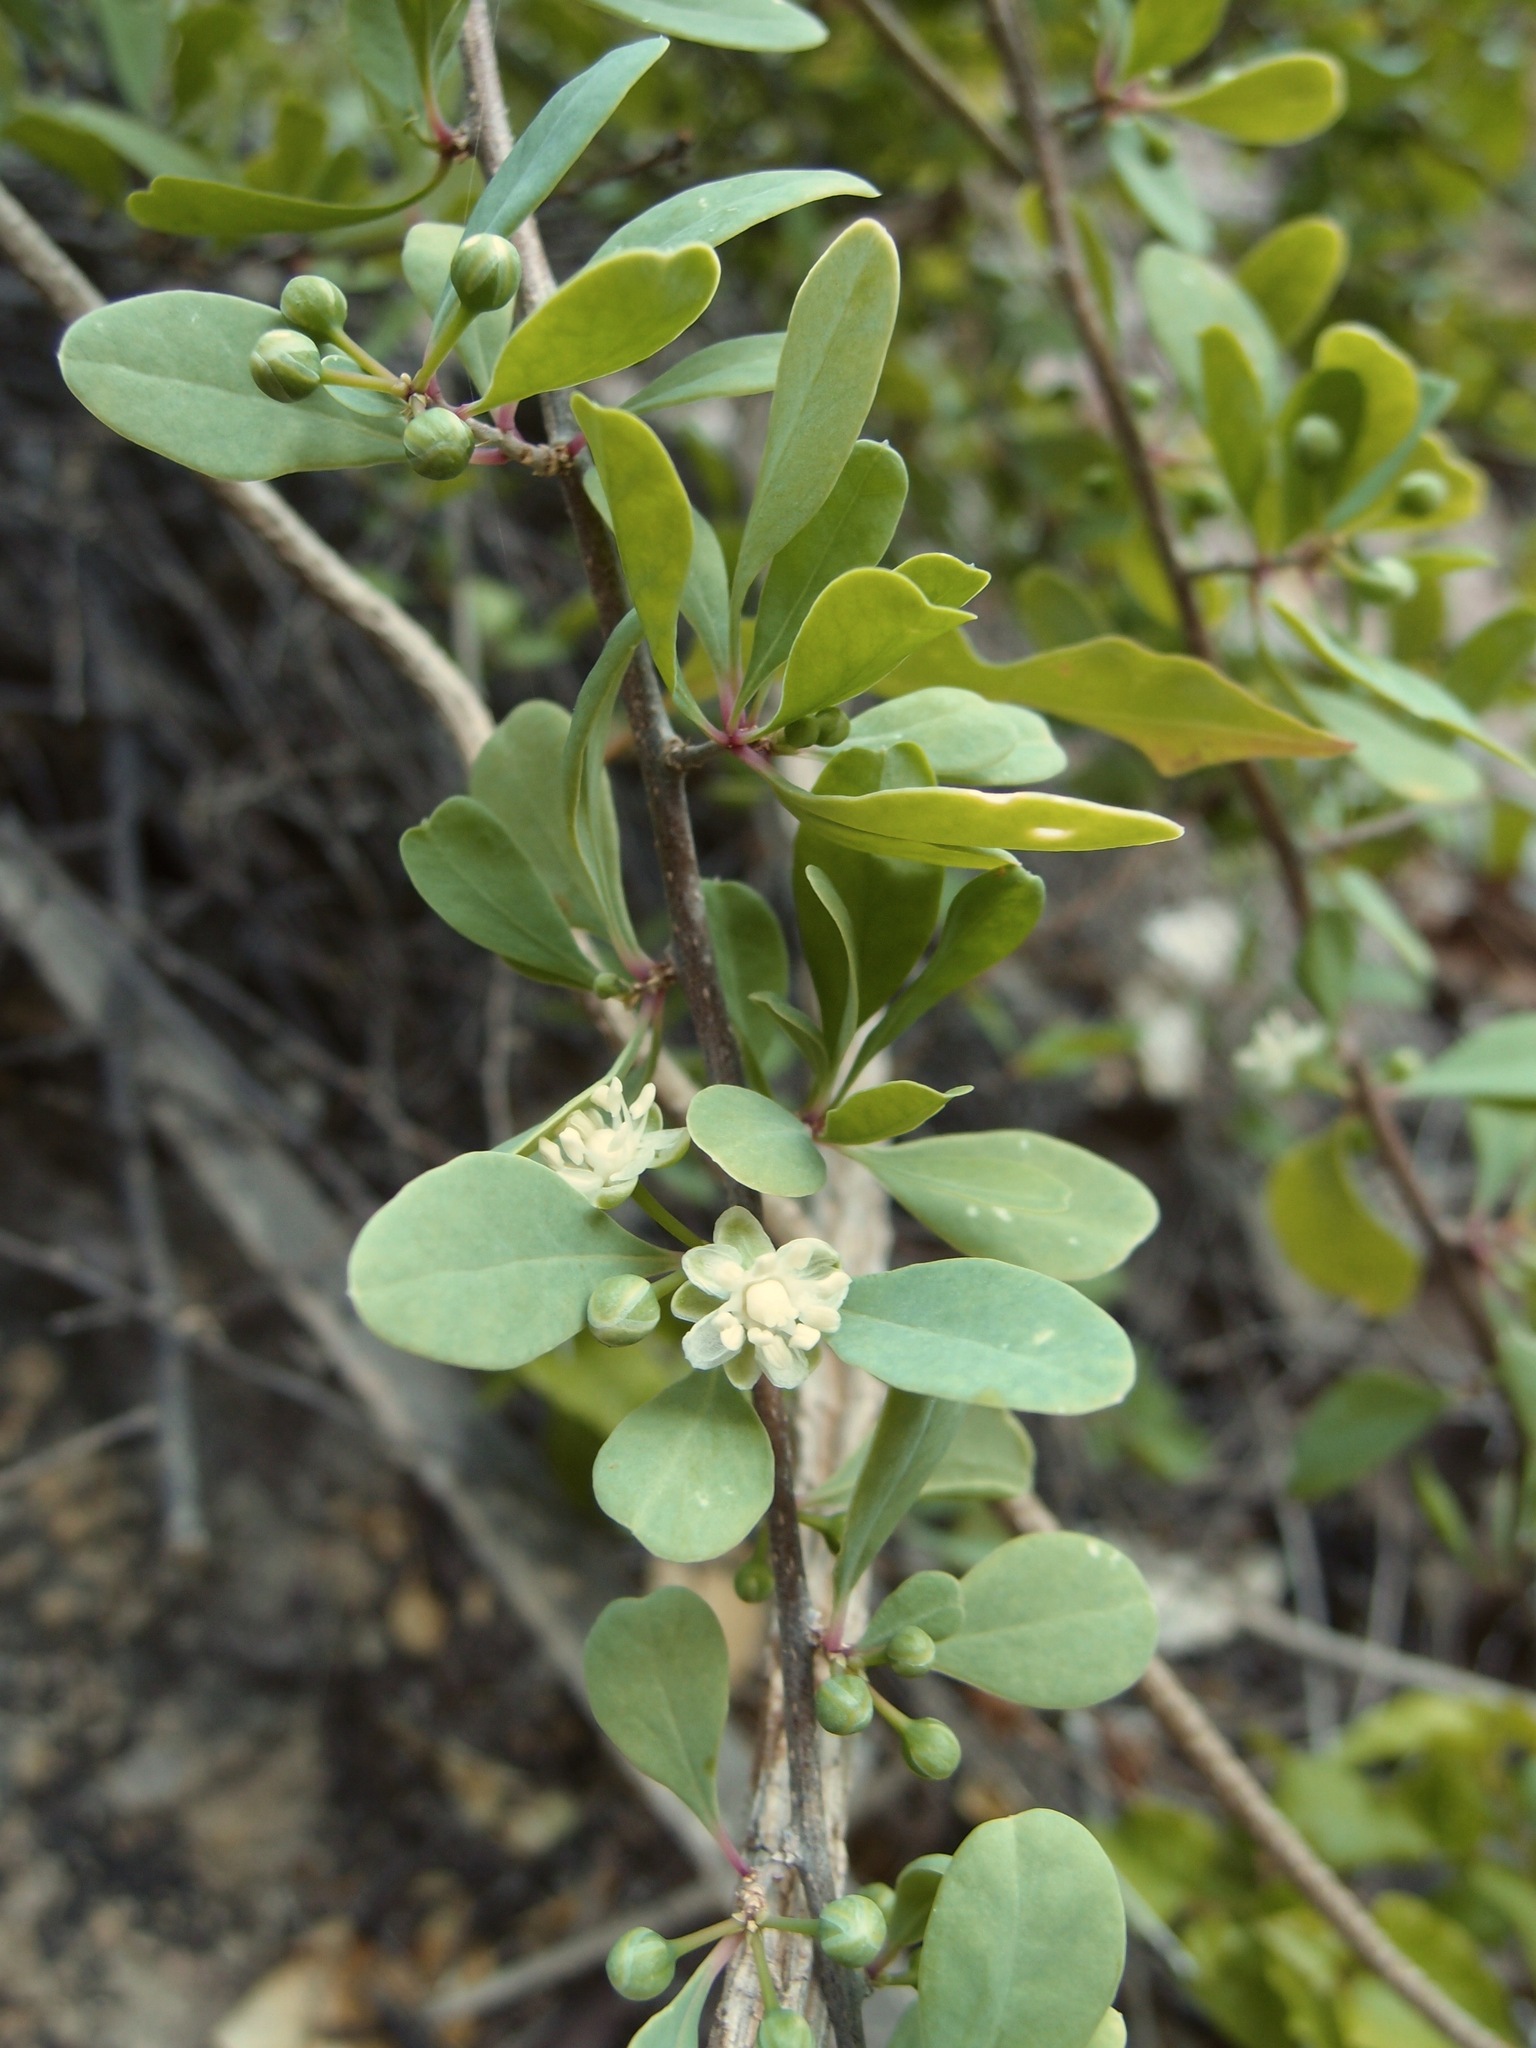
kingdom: Plantae
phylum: Tracheophyta
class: Magnoliopsida
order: Caryophyllales
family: Stegnospermataceae
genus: Stegnosperma
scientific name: Stegnosperma halimifolium
